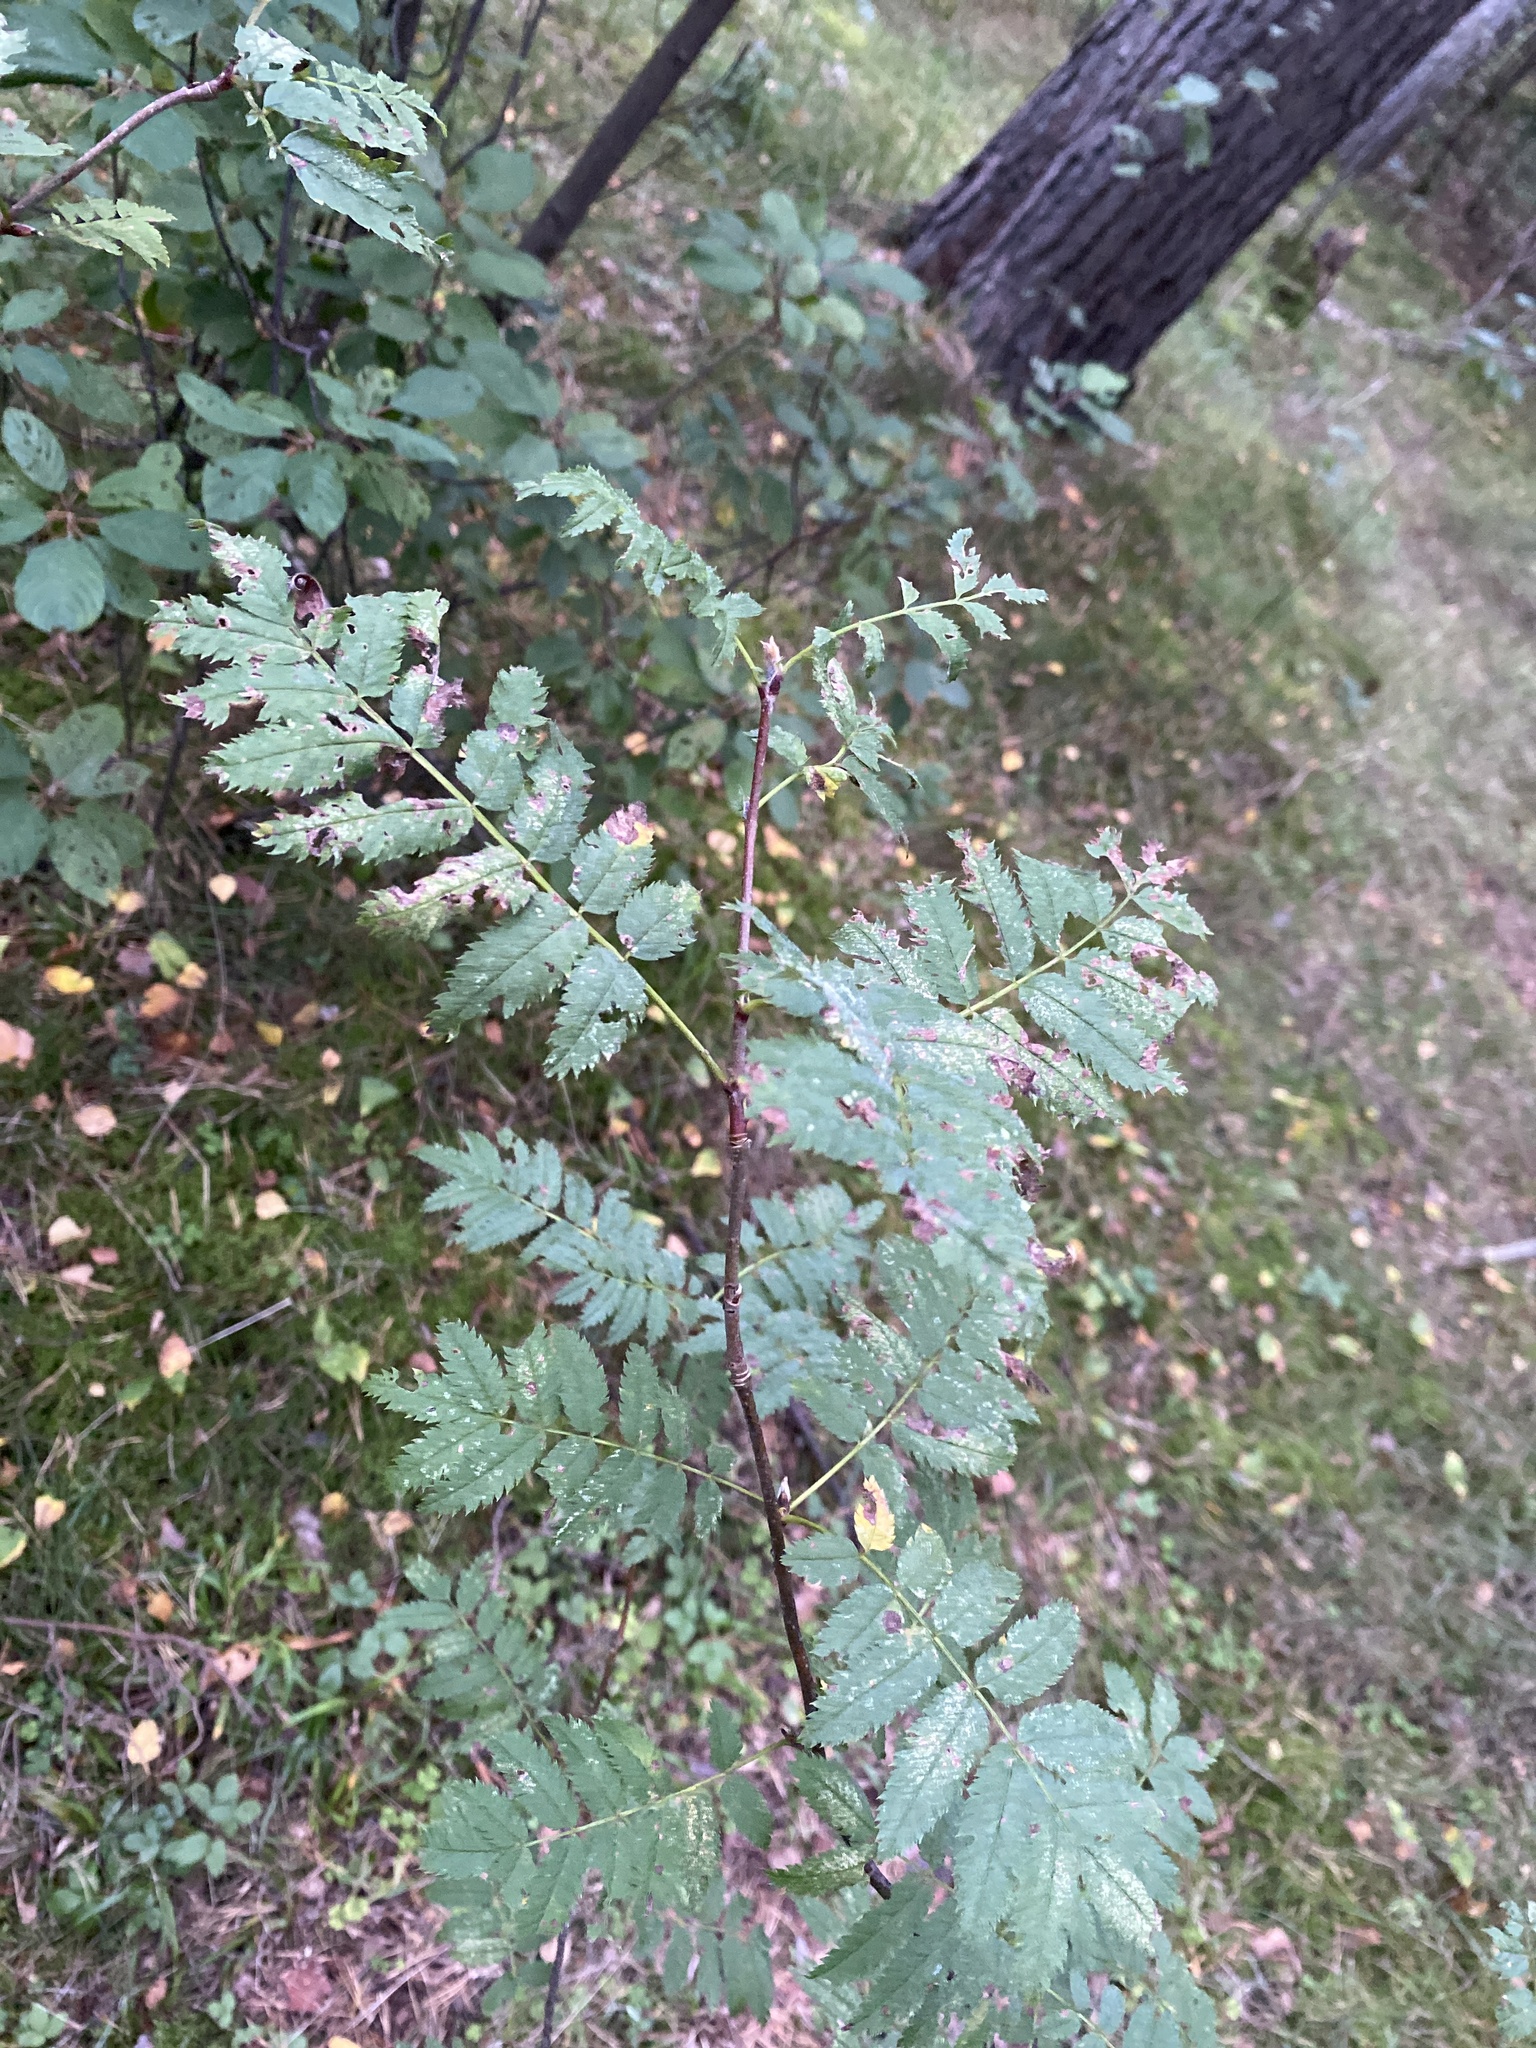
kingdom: Plantae
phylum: Tracheophyta
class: Magnoliopsida
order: Rosales
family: Rosaceae
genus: Sorbus
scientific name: Sorbus aucuparia
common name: Rowan
